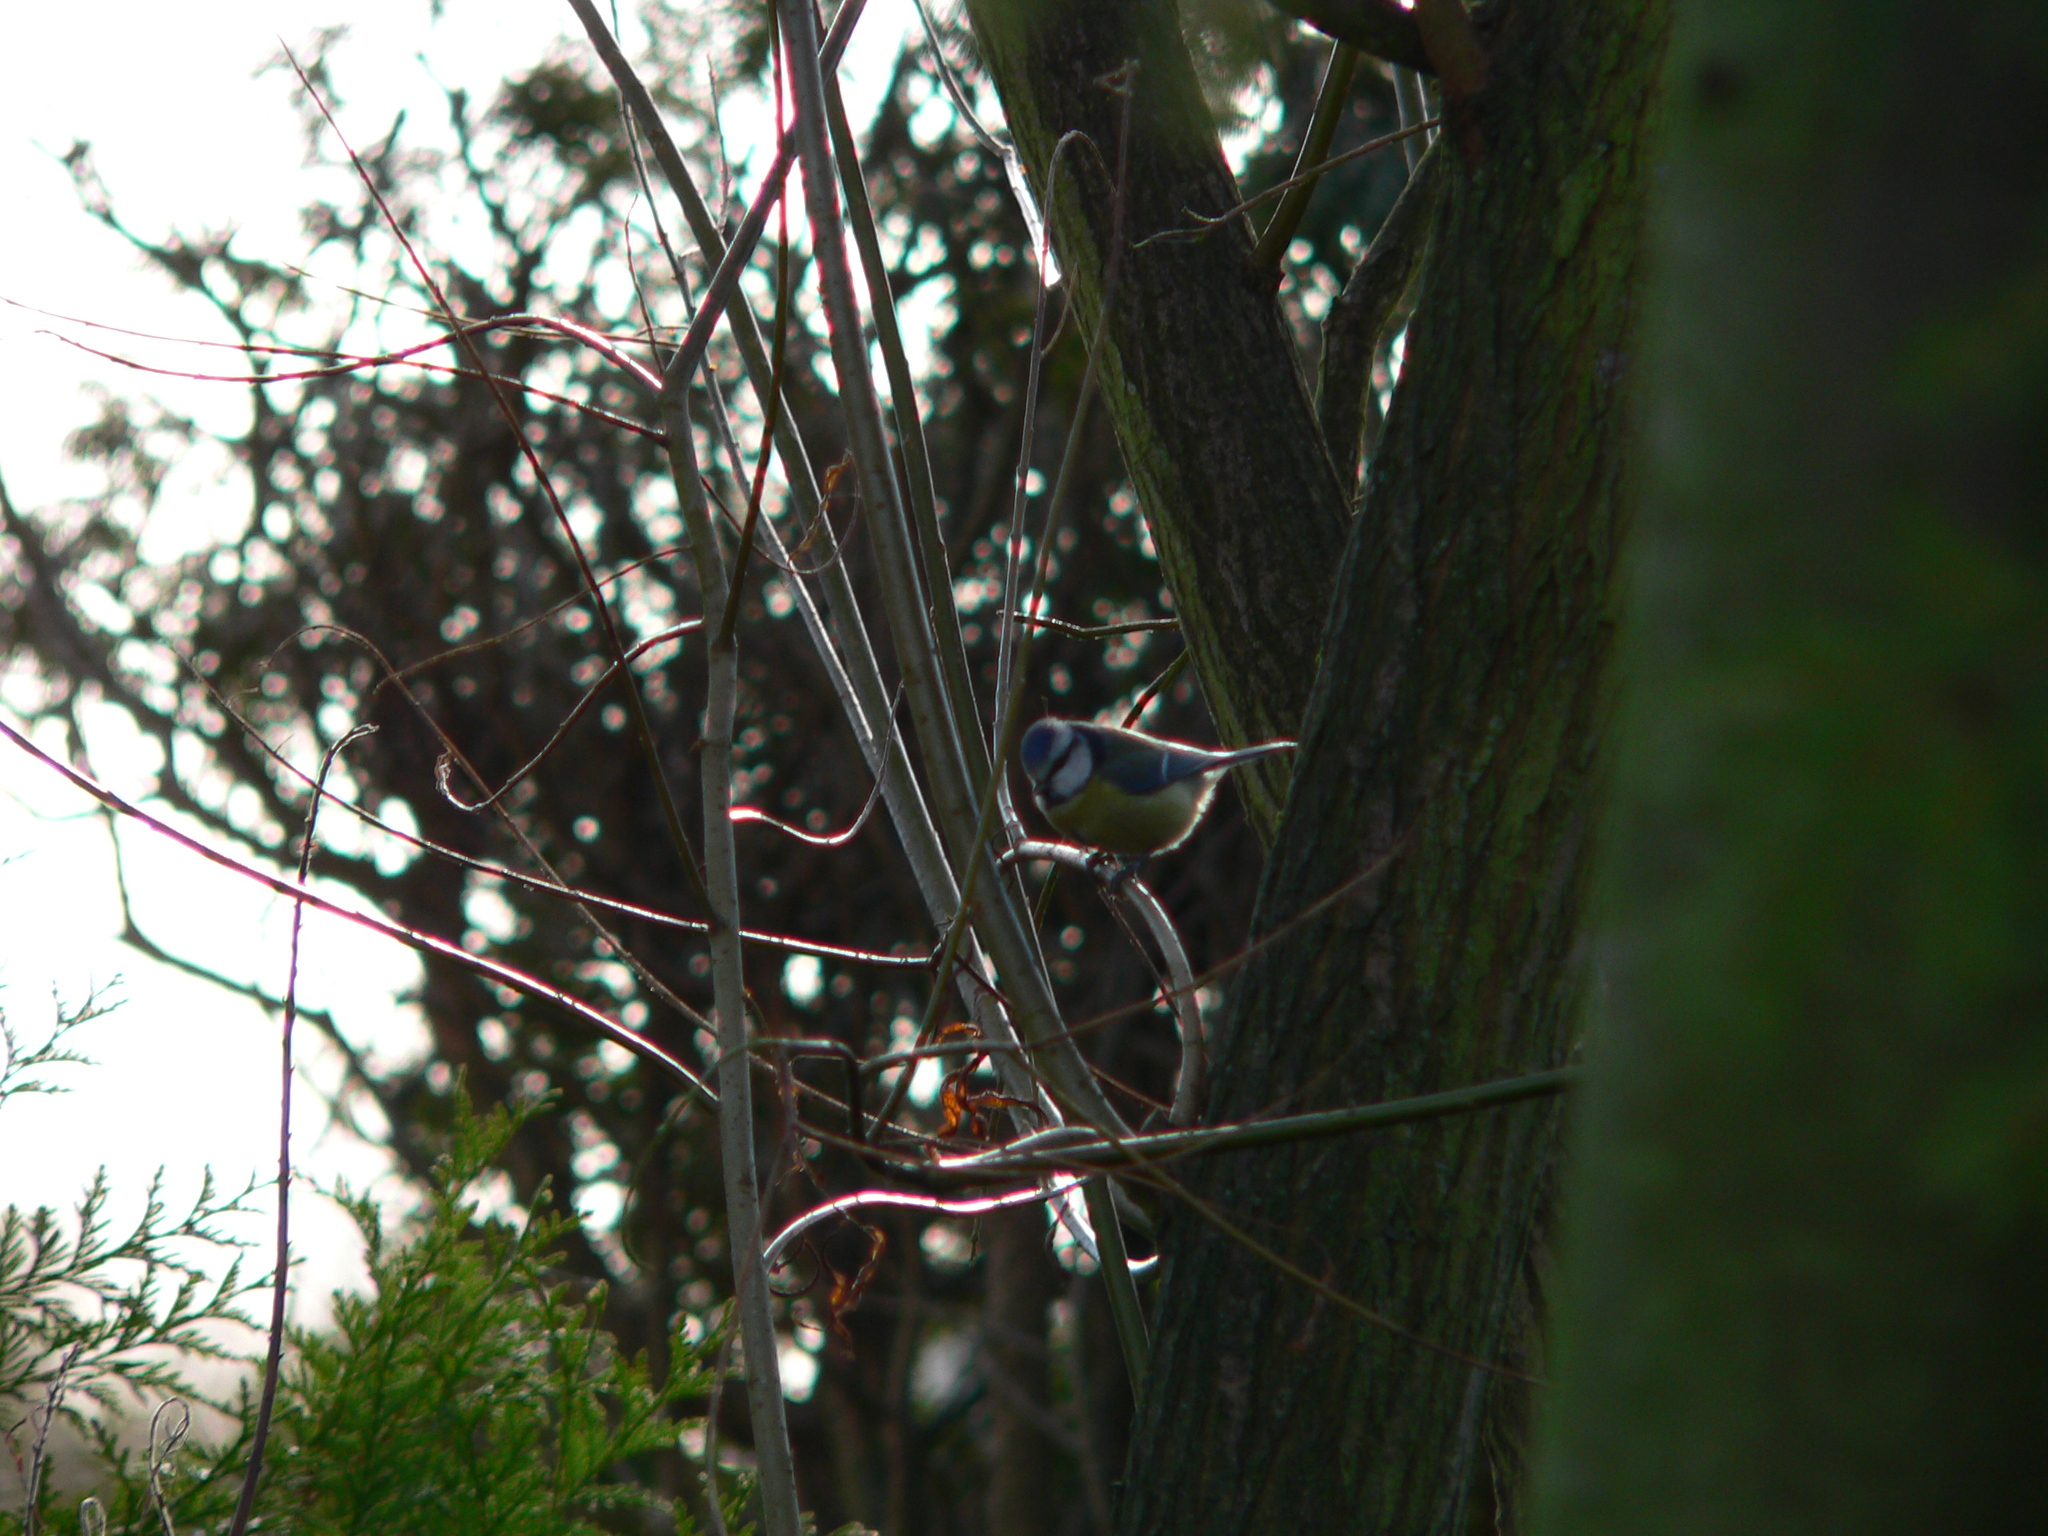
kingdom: Animalia
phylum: Chordata
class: Aves
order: Passeriformes
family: Paridae
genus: Cyanistes
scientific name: Cyanistes caeruleus
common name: Eurasian blue tit
